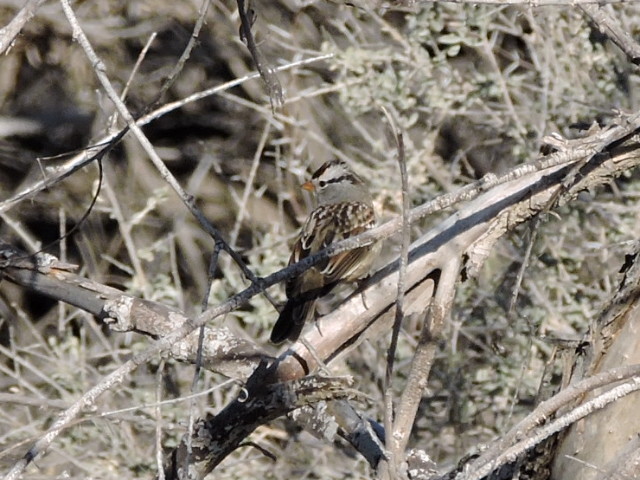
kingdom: Animalia
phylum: Chordata
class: Aves
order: Passeriformes
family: Passerellidae
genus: Zonotrichia
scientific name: Zonotrichia leucophrys
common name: White-crowned sparrow
